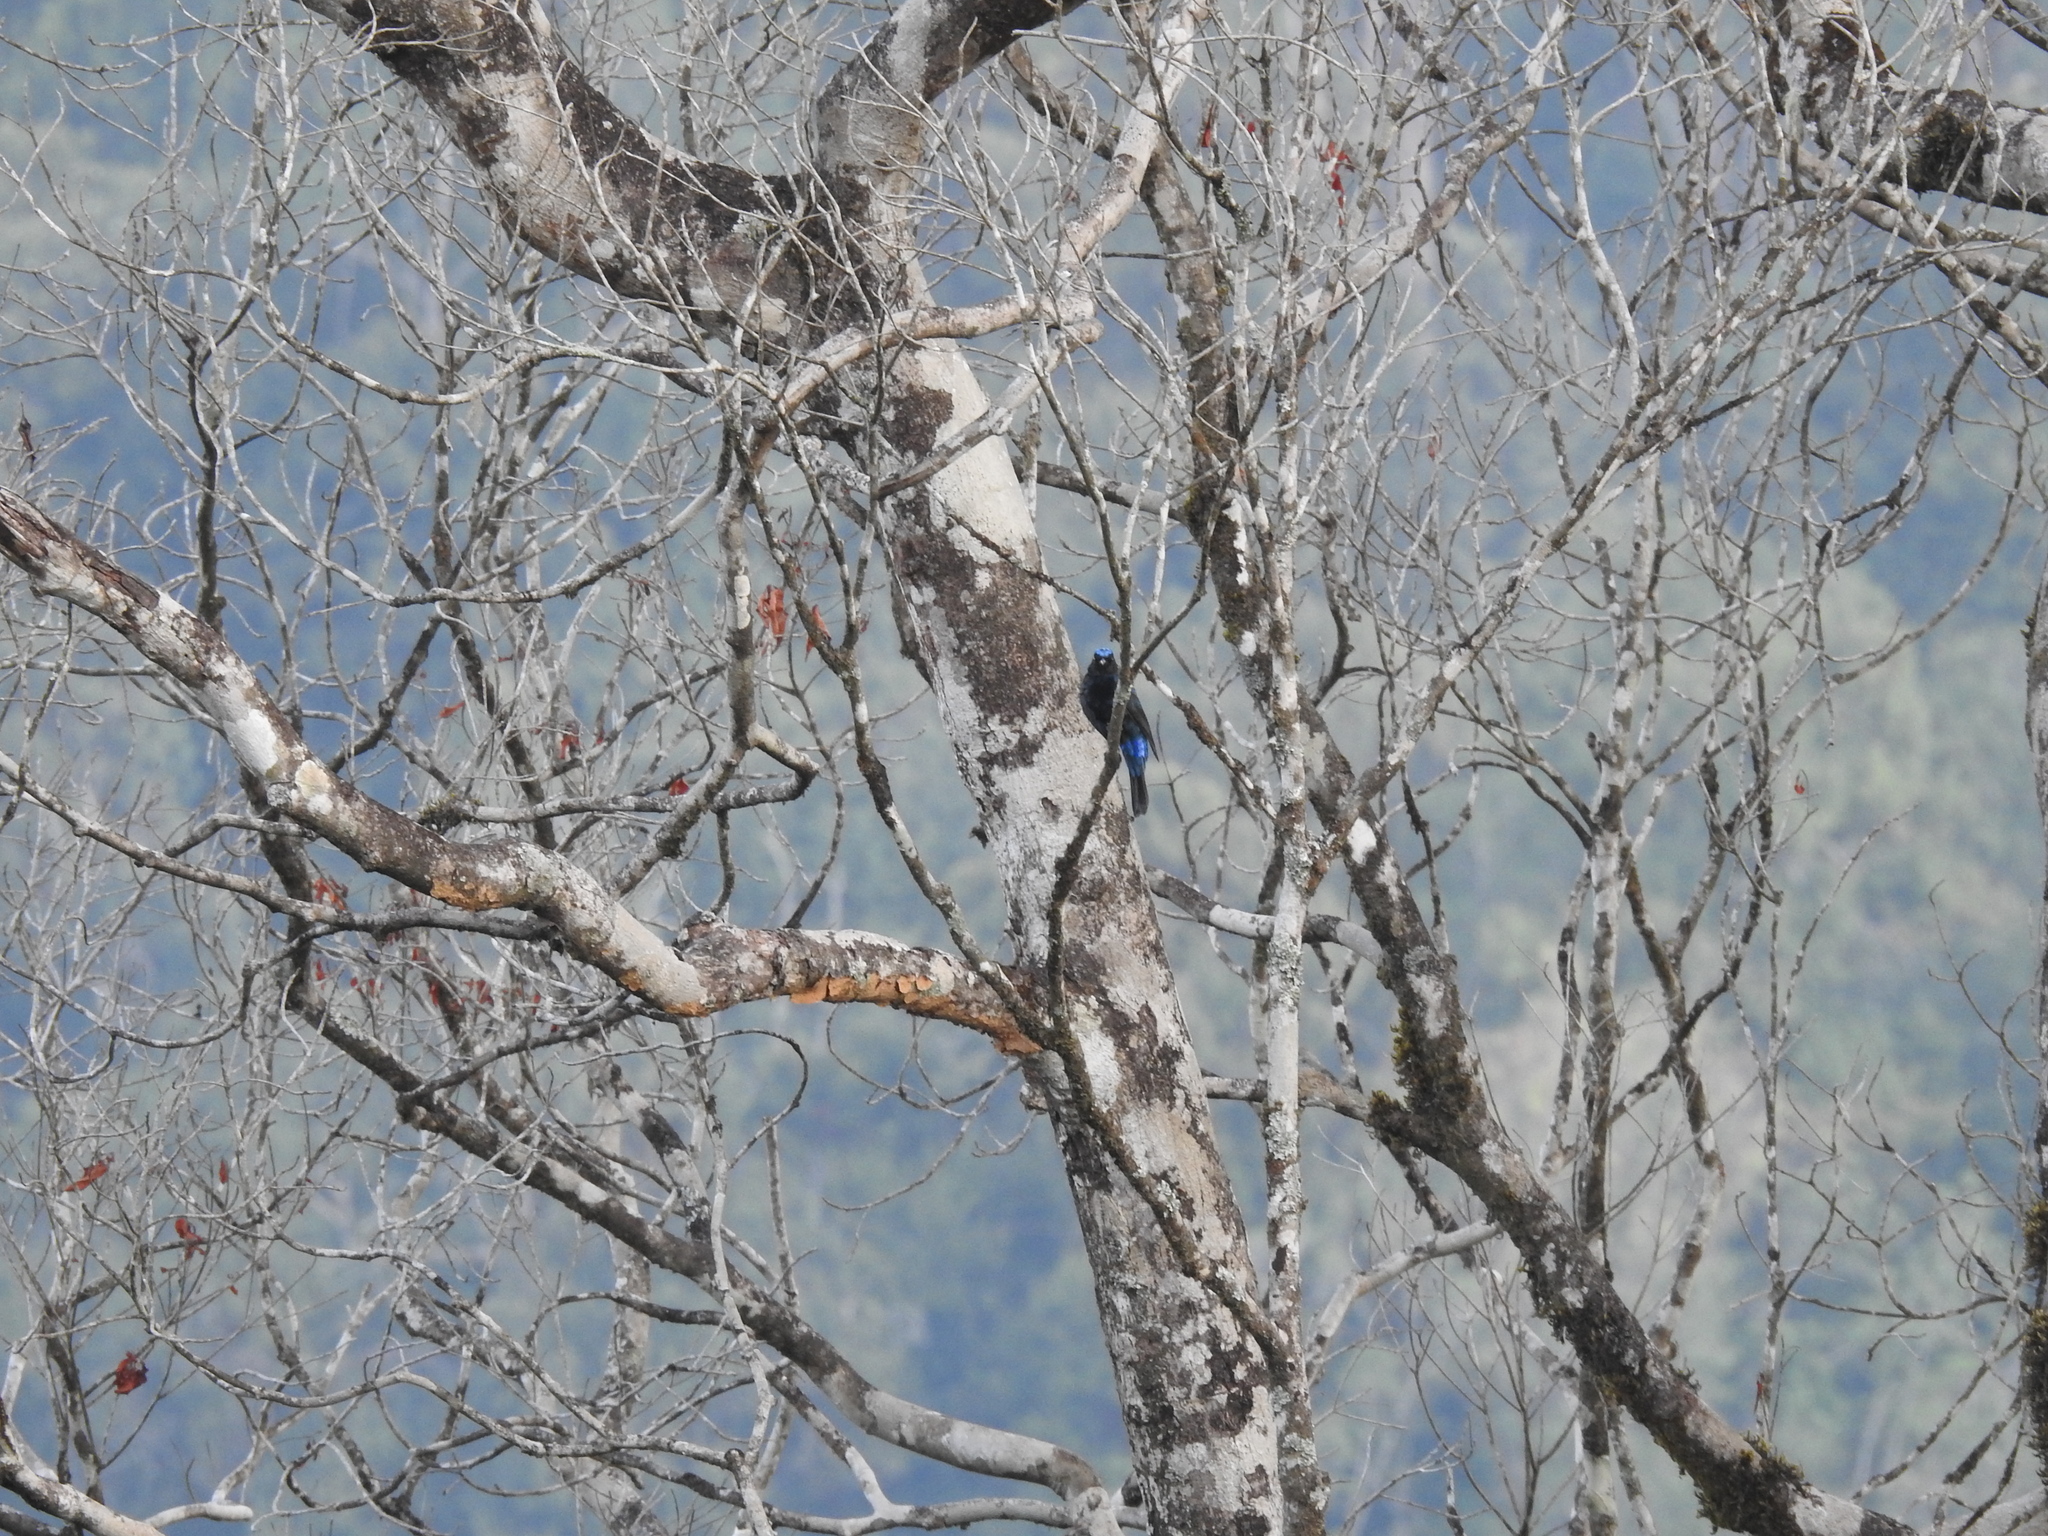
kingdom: Animalia
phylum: Chordata
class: Aves
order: Passeriformes
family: Irenidae
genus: Irena
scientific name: Irena puella
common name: Asian fairy-bluebird
